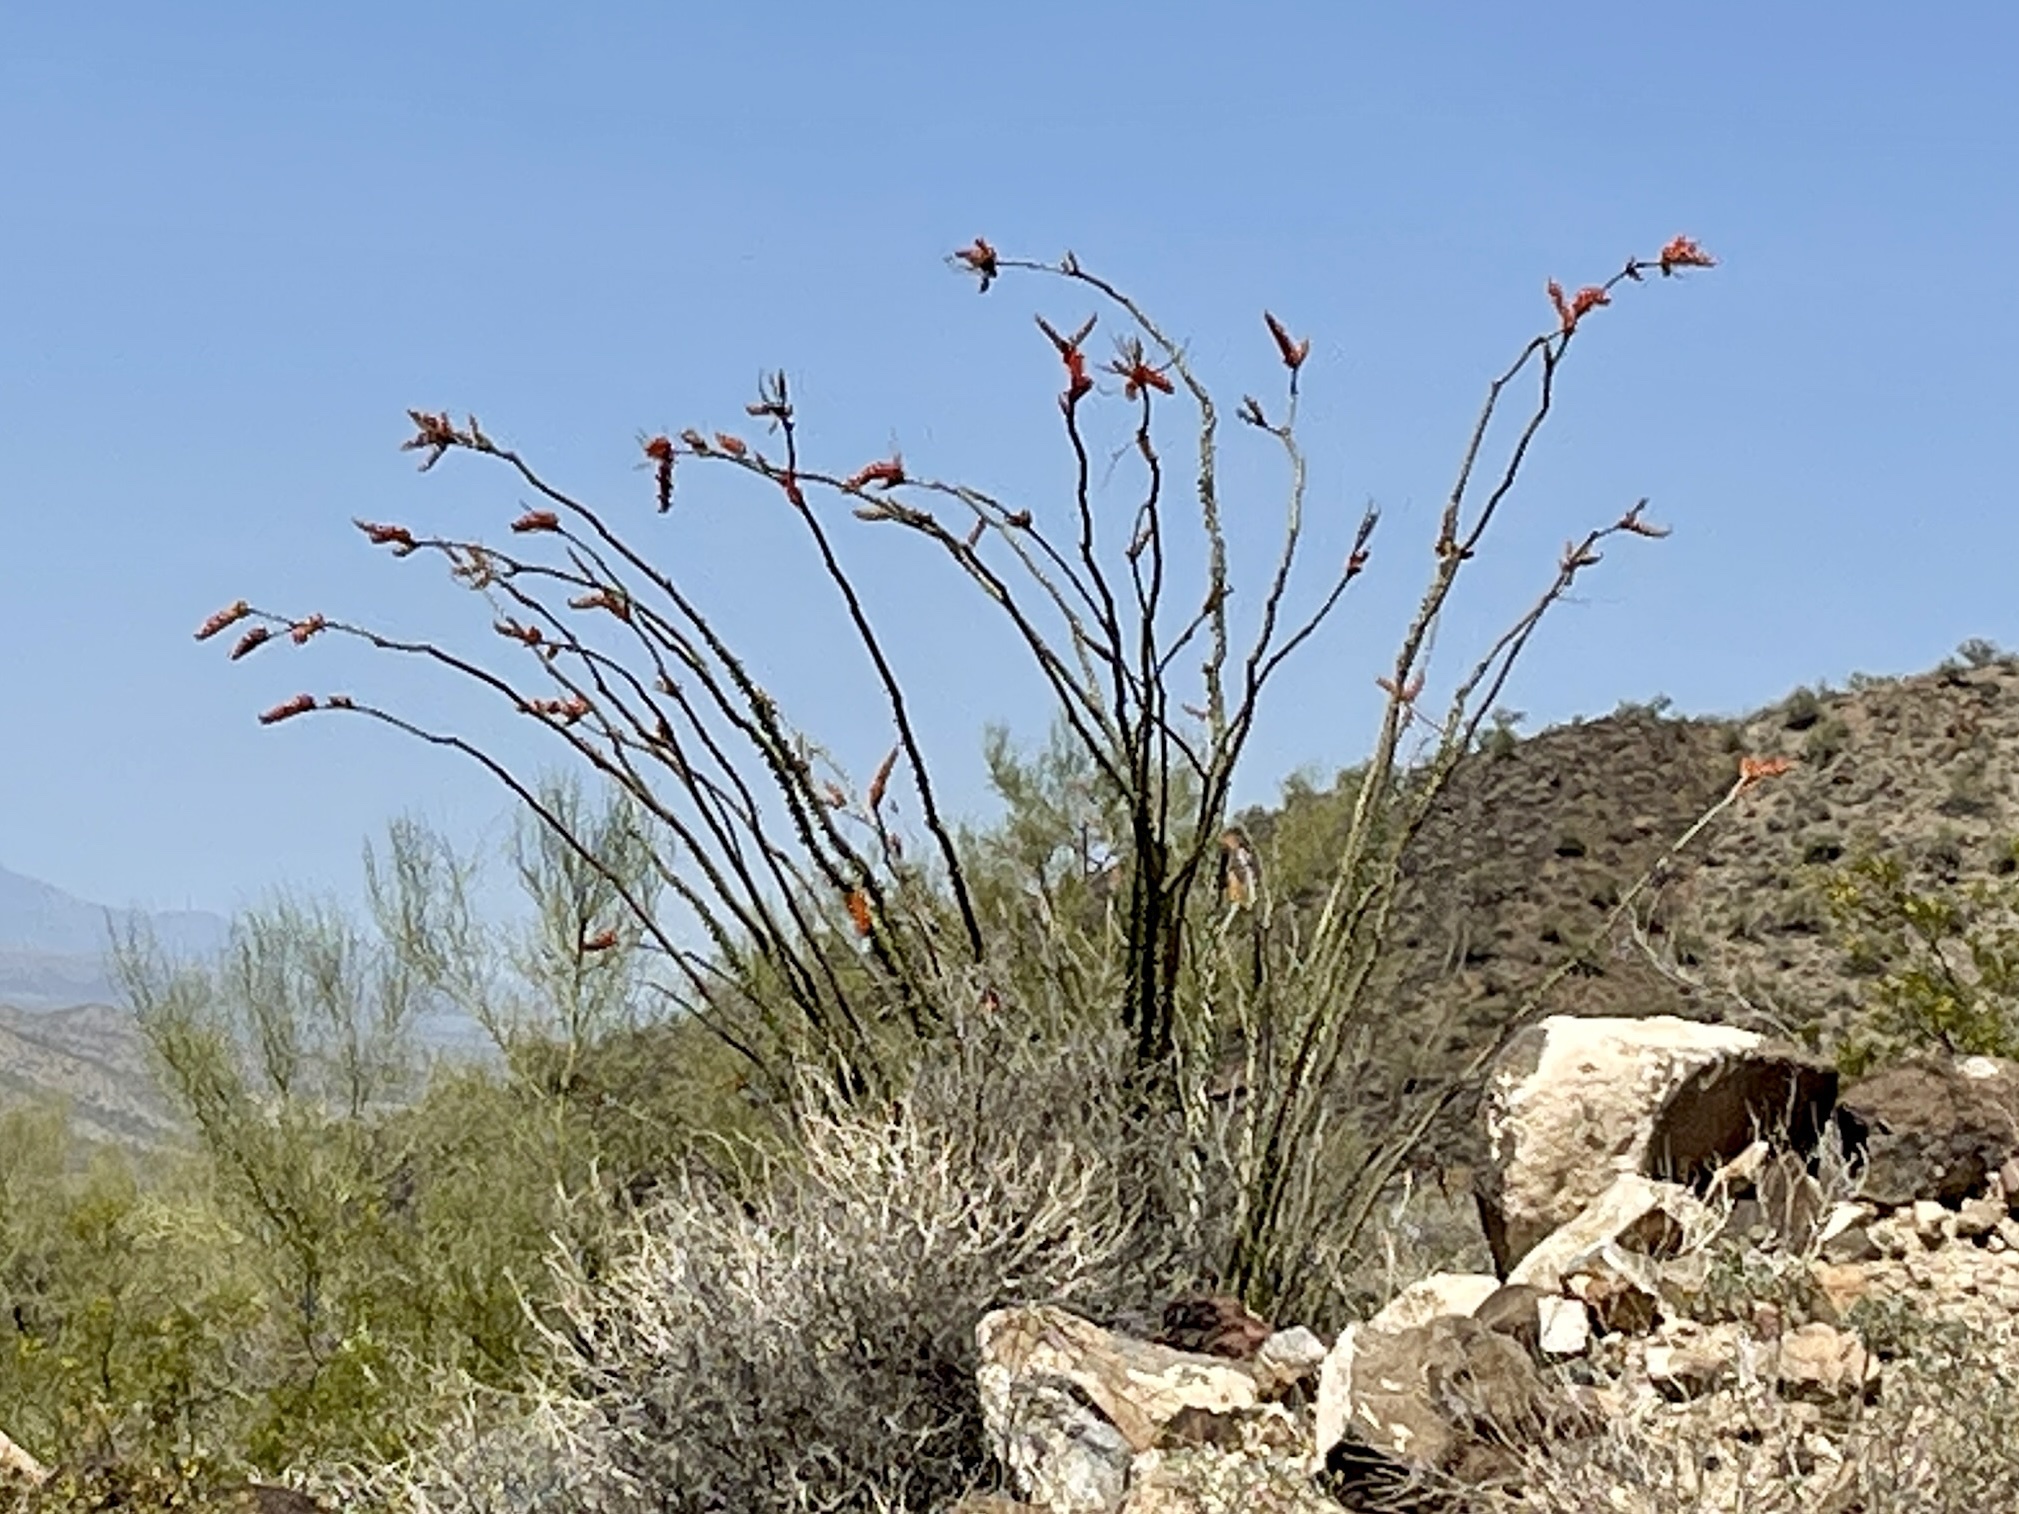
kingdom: Plantae
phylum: Tracheophyta
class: Magnoliopsida
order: Ericales
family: Fouquieriaceae
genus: Fouquieria
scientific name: Fouquieria splendens
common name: Vine-cactus
